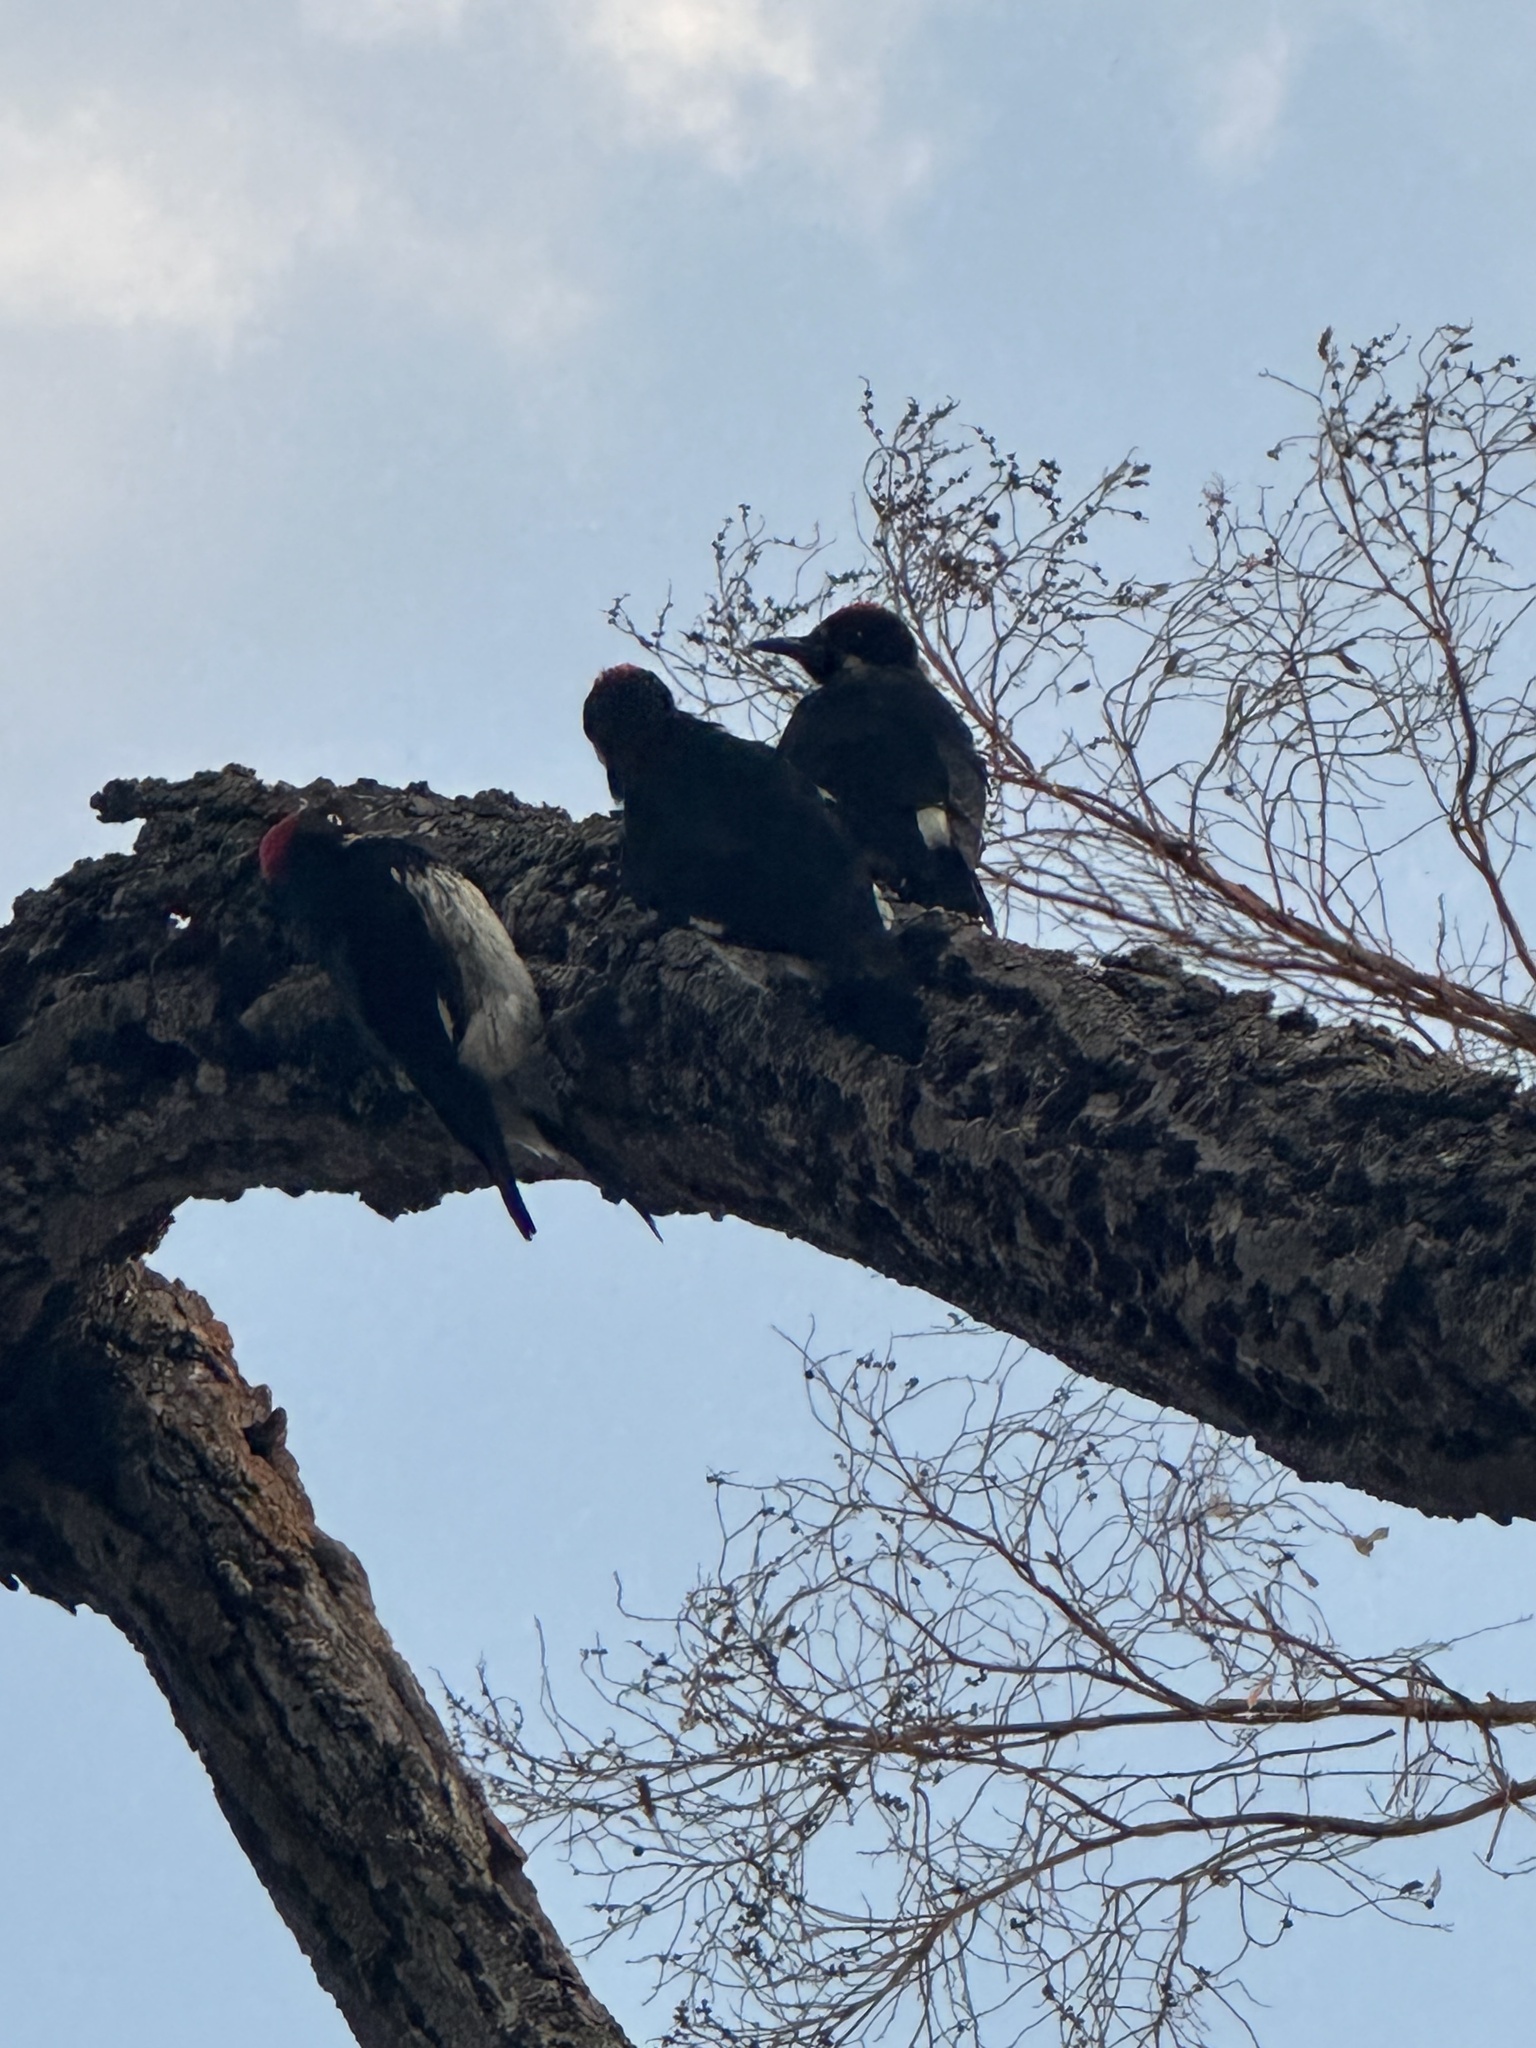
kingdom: Animalia
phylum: Chordata
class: Aves
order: Piciformes
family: Picidae
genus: Melanerpes
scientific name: Melanerpes formicivorus
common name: Acorn woodpecker
